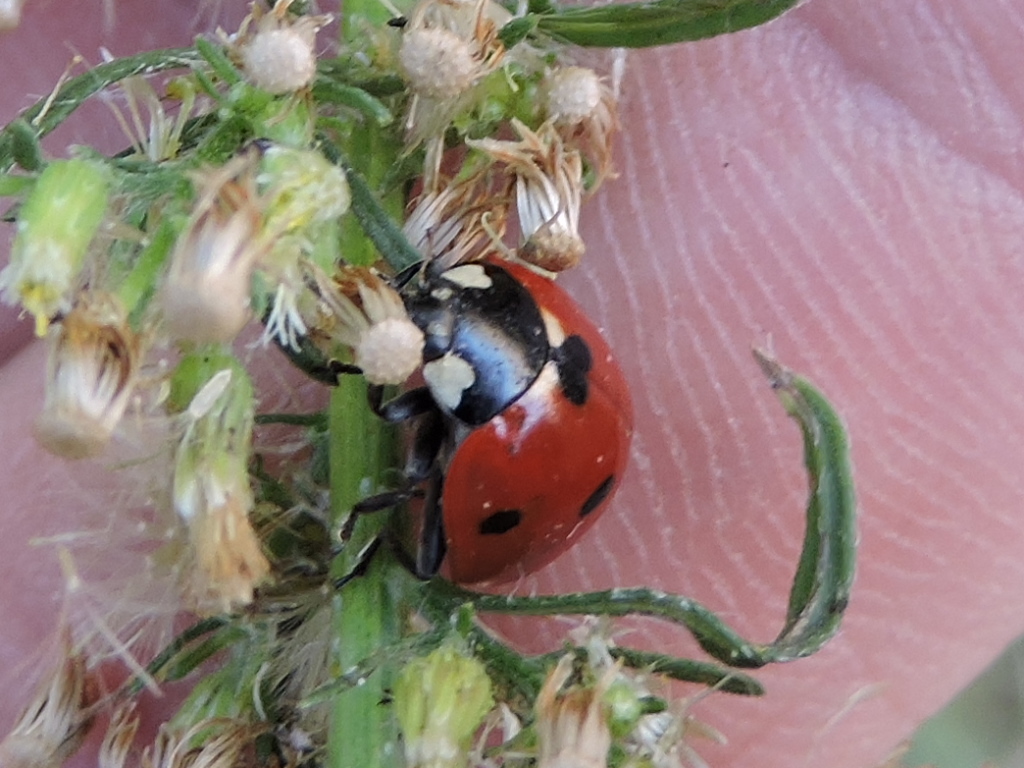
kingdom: Animalia
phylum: Arthropoda
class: Insecta
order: Coleoptera
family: Coccinellidae
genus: Coccinella
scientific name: Coccinella septempunctata
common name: Sevenspotted lady beetle
